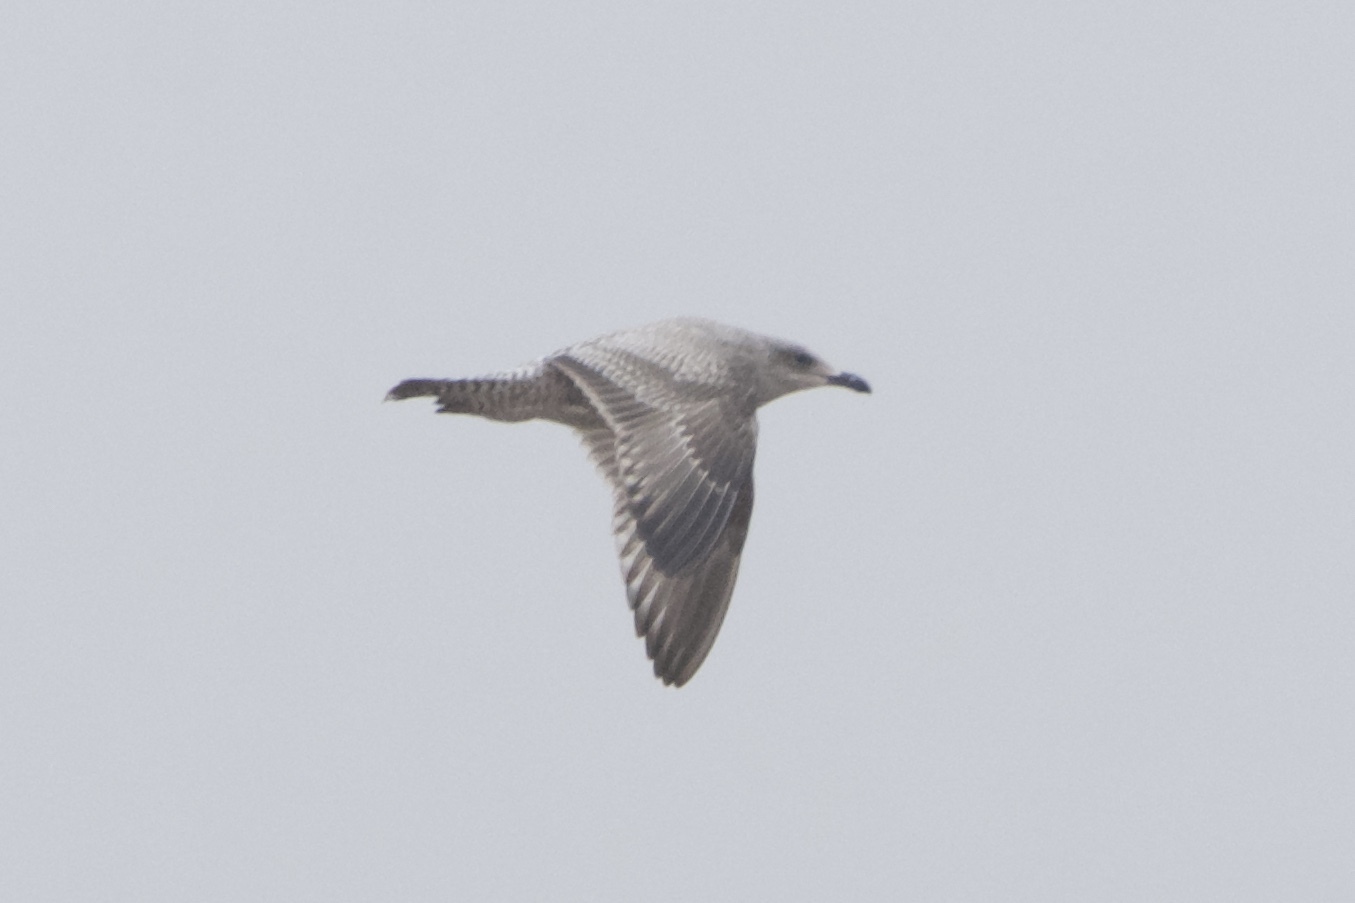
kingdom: Animalia
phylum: Chordata
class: Aves
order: Charadriiformes
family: Laridae
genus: Larus
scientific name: Larus argentatus
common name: Herring gull
